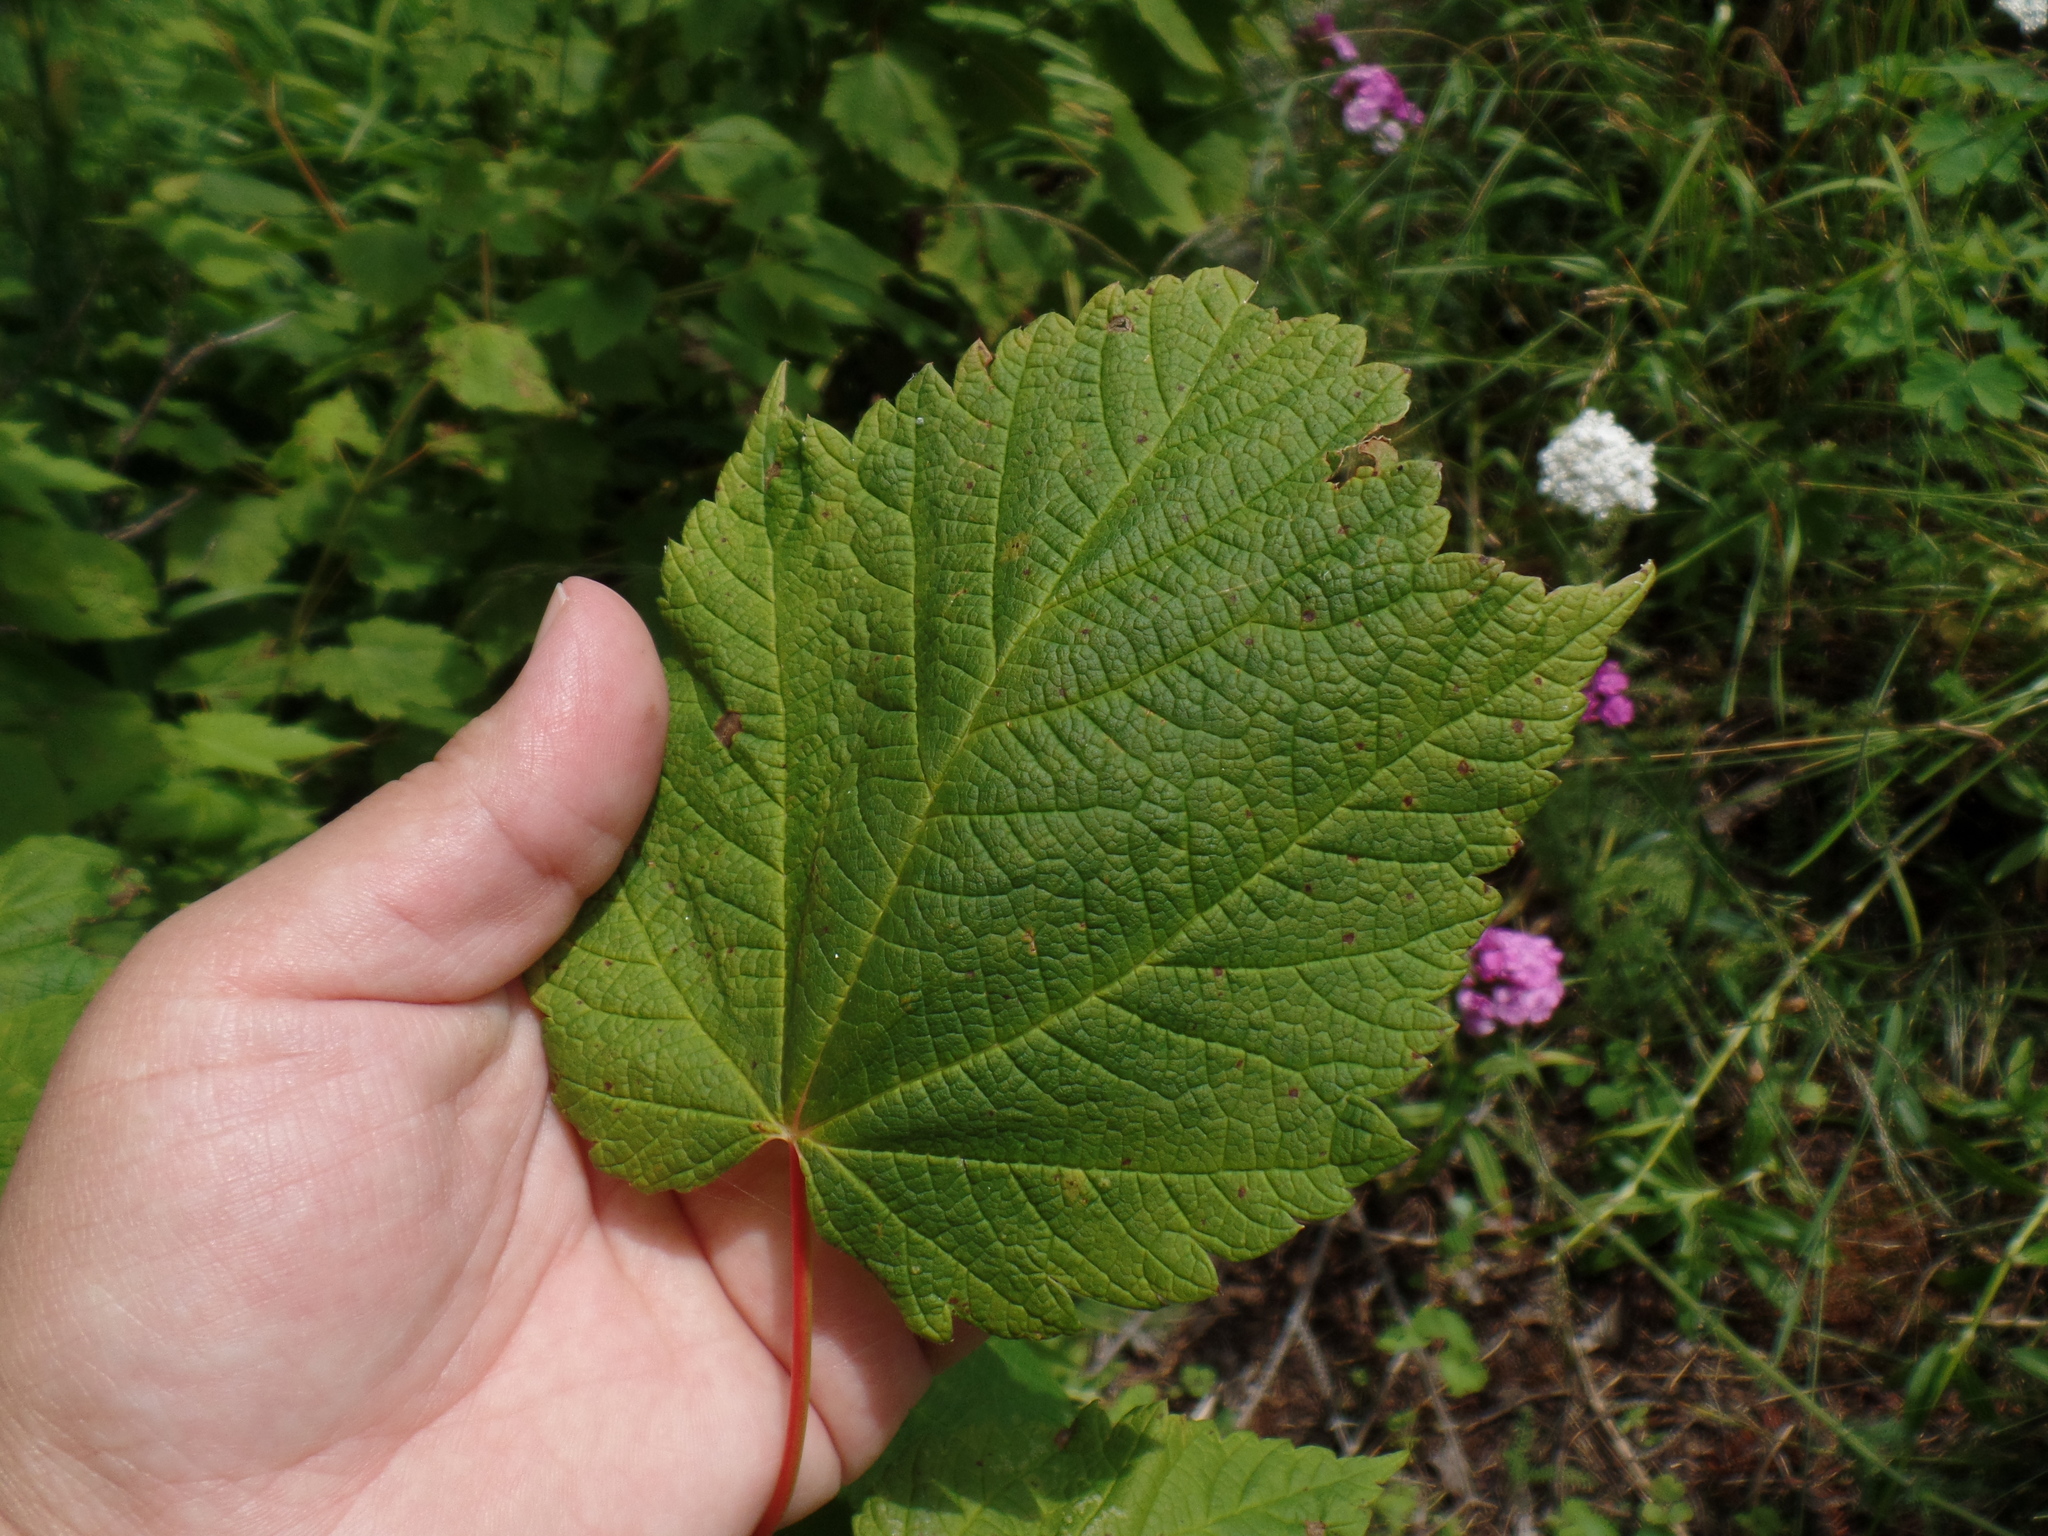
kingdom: Plantae
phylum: Tracheophyta
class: Magnoliopsida
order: Sapindales
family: Sapindaceae
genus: Acer
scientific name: Acer spicatum
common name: Mountain maple
